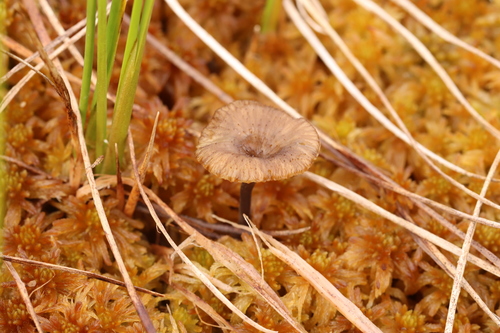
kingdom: Fungi
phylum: Basidiomycota
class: Agaricomycetes
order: Agaricales
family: Hygrophoraceae
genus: Arrhenia
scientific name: Arrhenia
